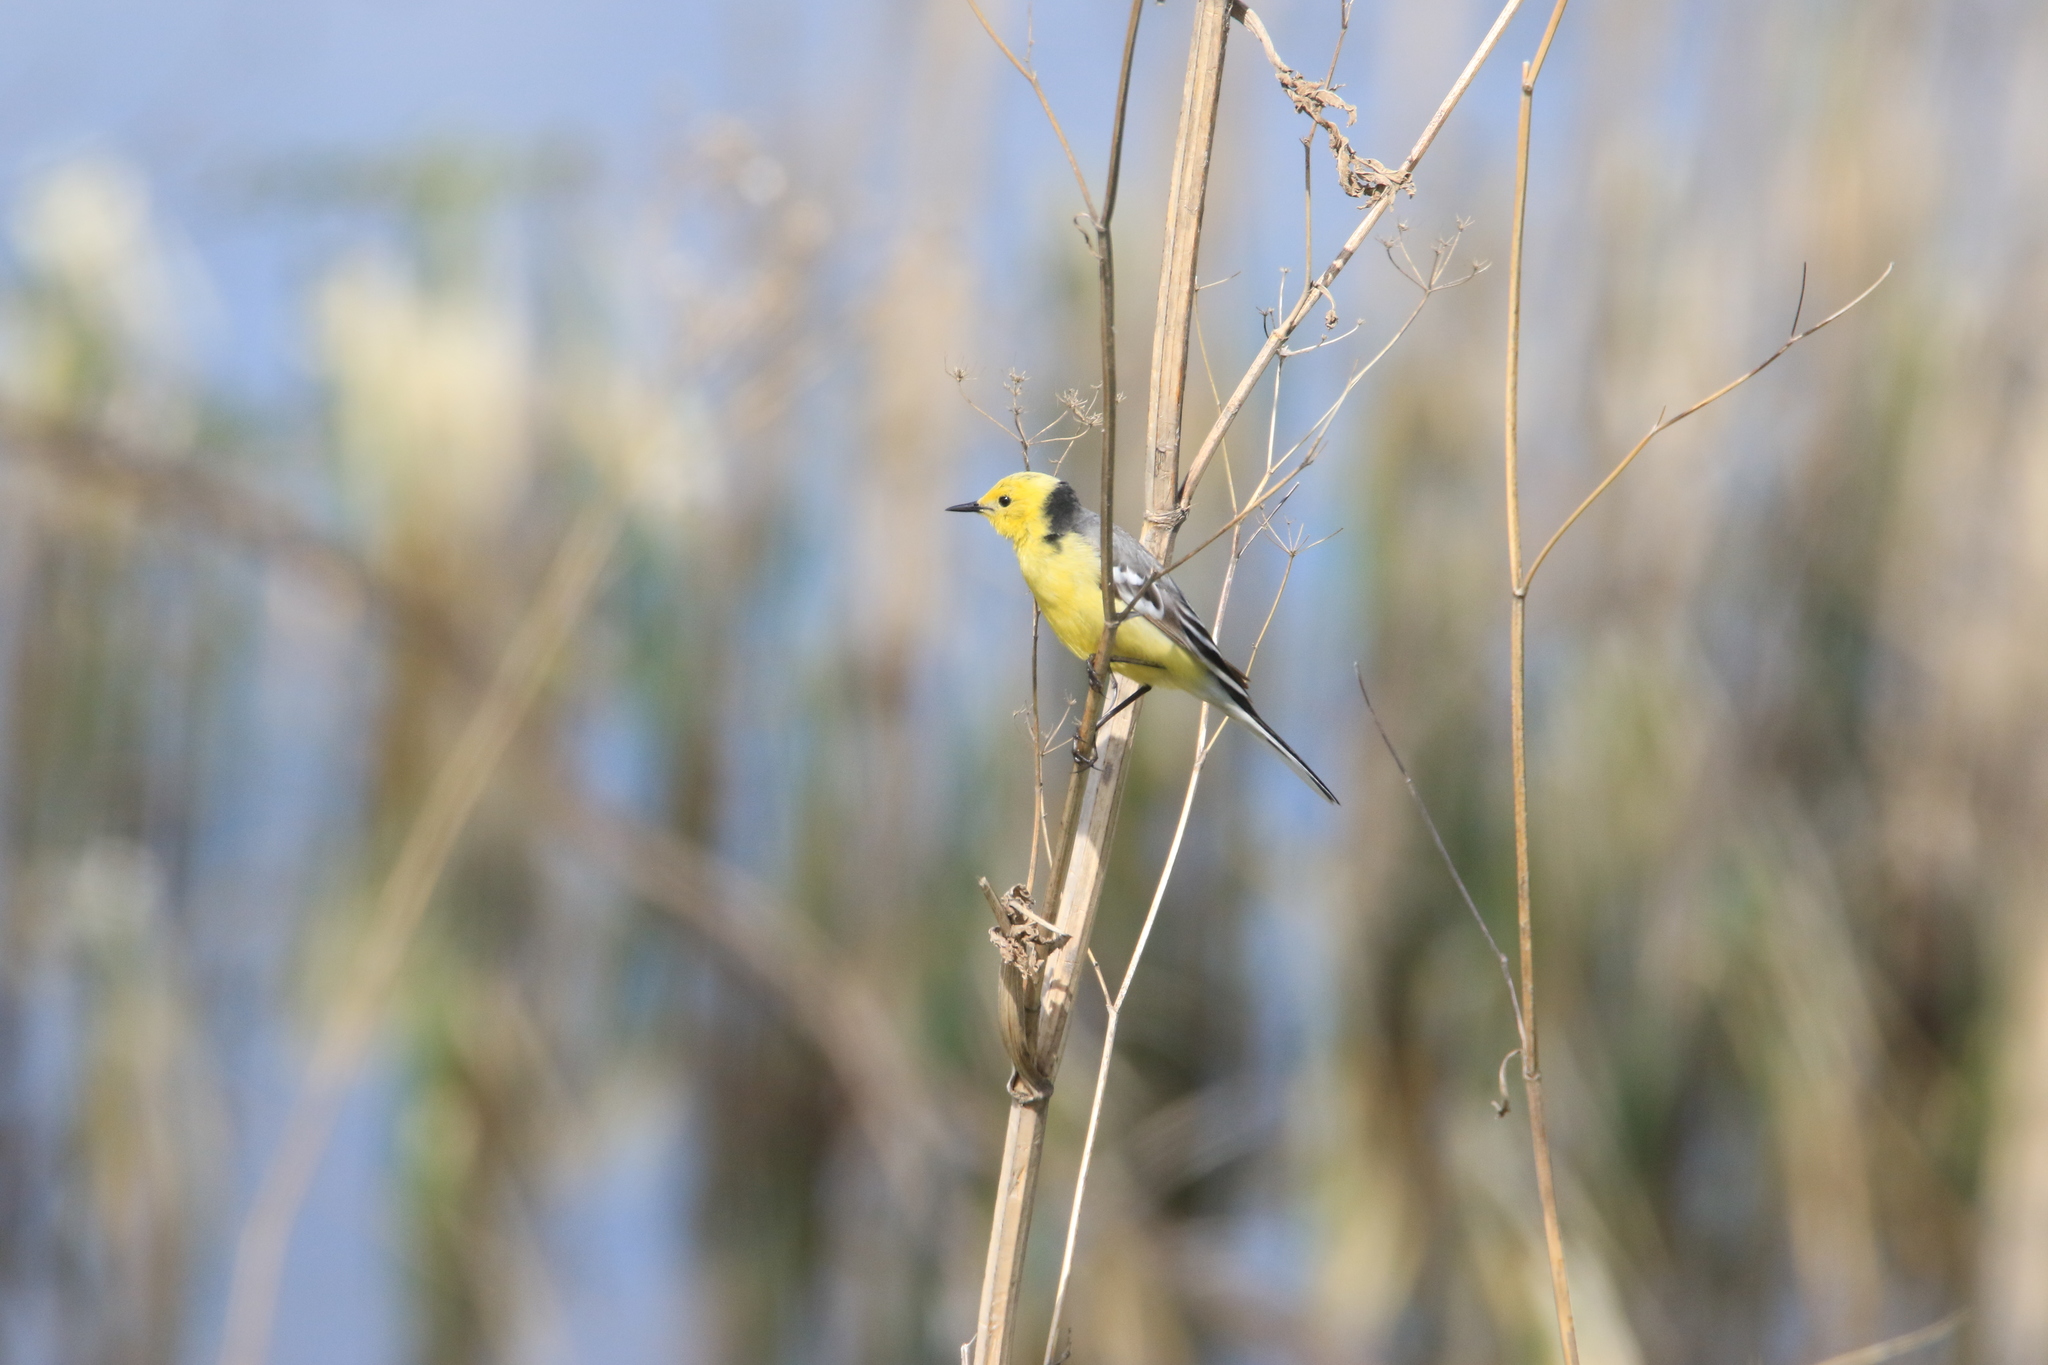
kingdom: Animalia
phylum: Chordata
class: Aves
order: Passeriformes
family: Motacillidae
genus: Motacilla
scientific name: Motacilla citreola
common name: Citrine wagtail
